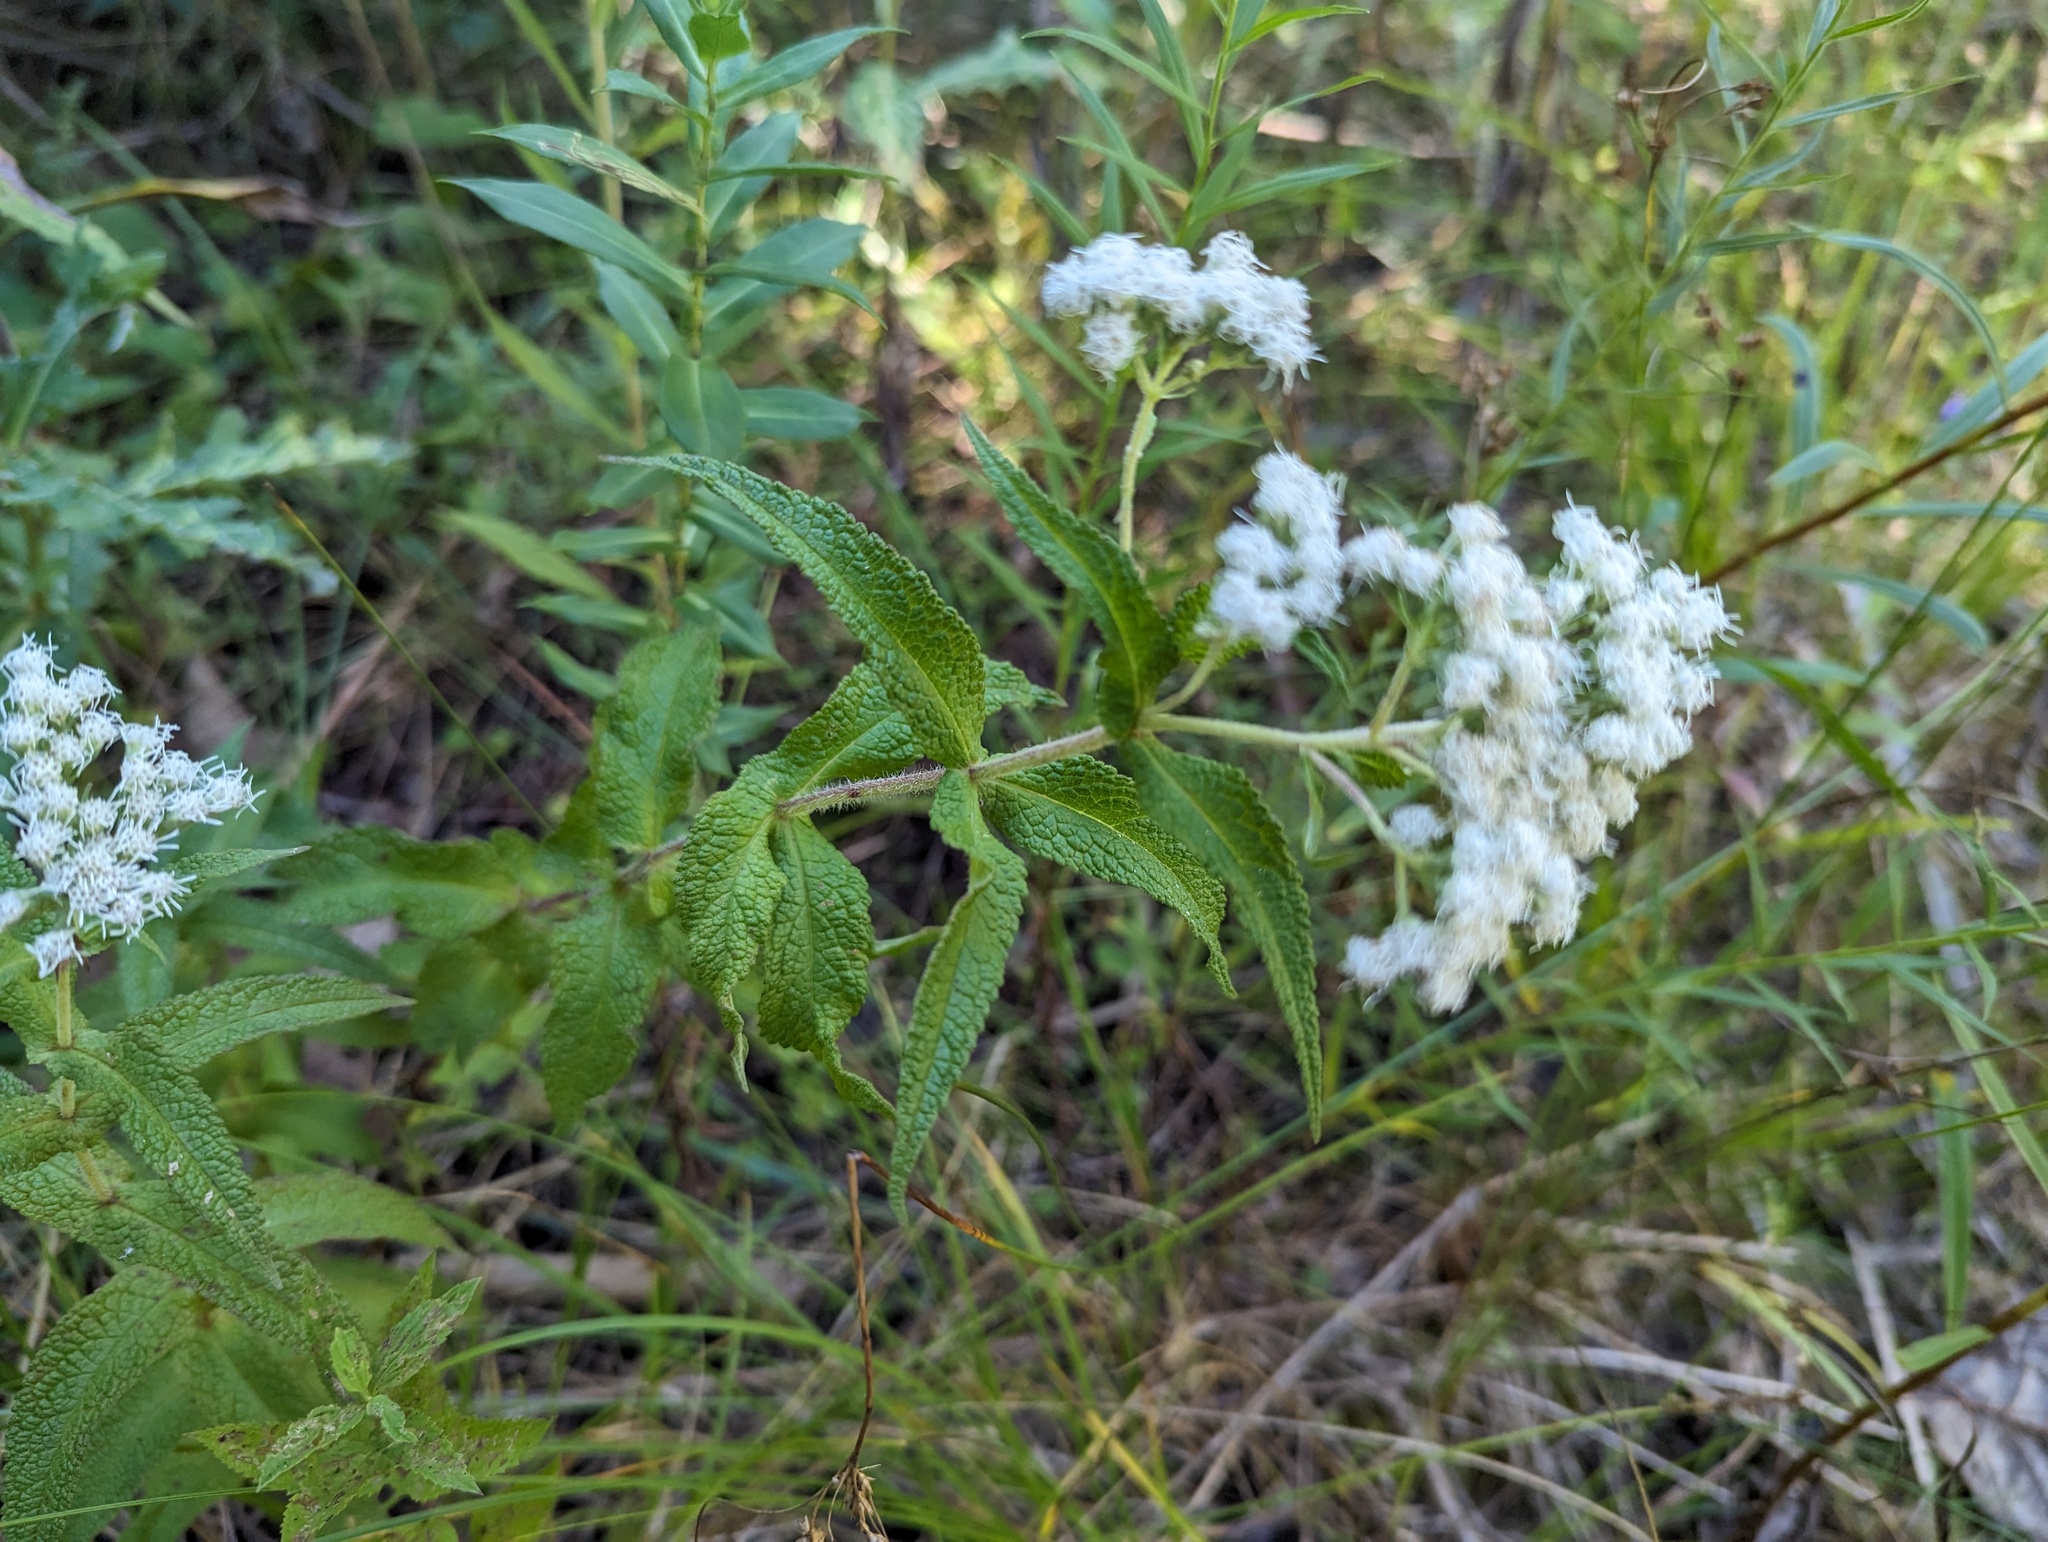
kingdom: Plantae
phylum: Tracheophyta
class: Magnoliopsida
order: Asterales
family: Asteraceae
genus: Eupatorium
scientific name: Eupatorium perfoliatum
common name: Boneset
